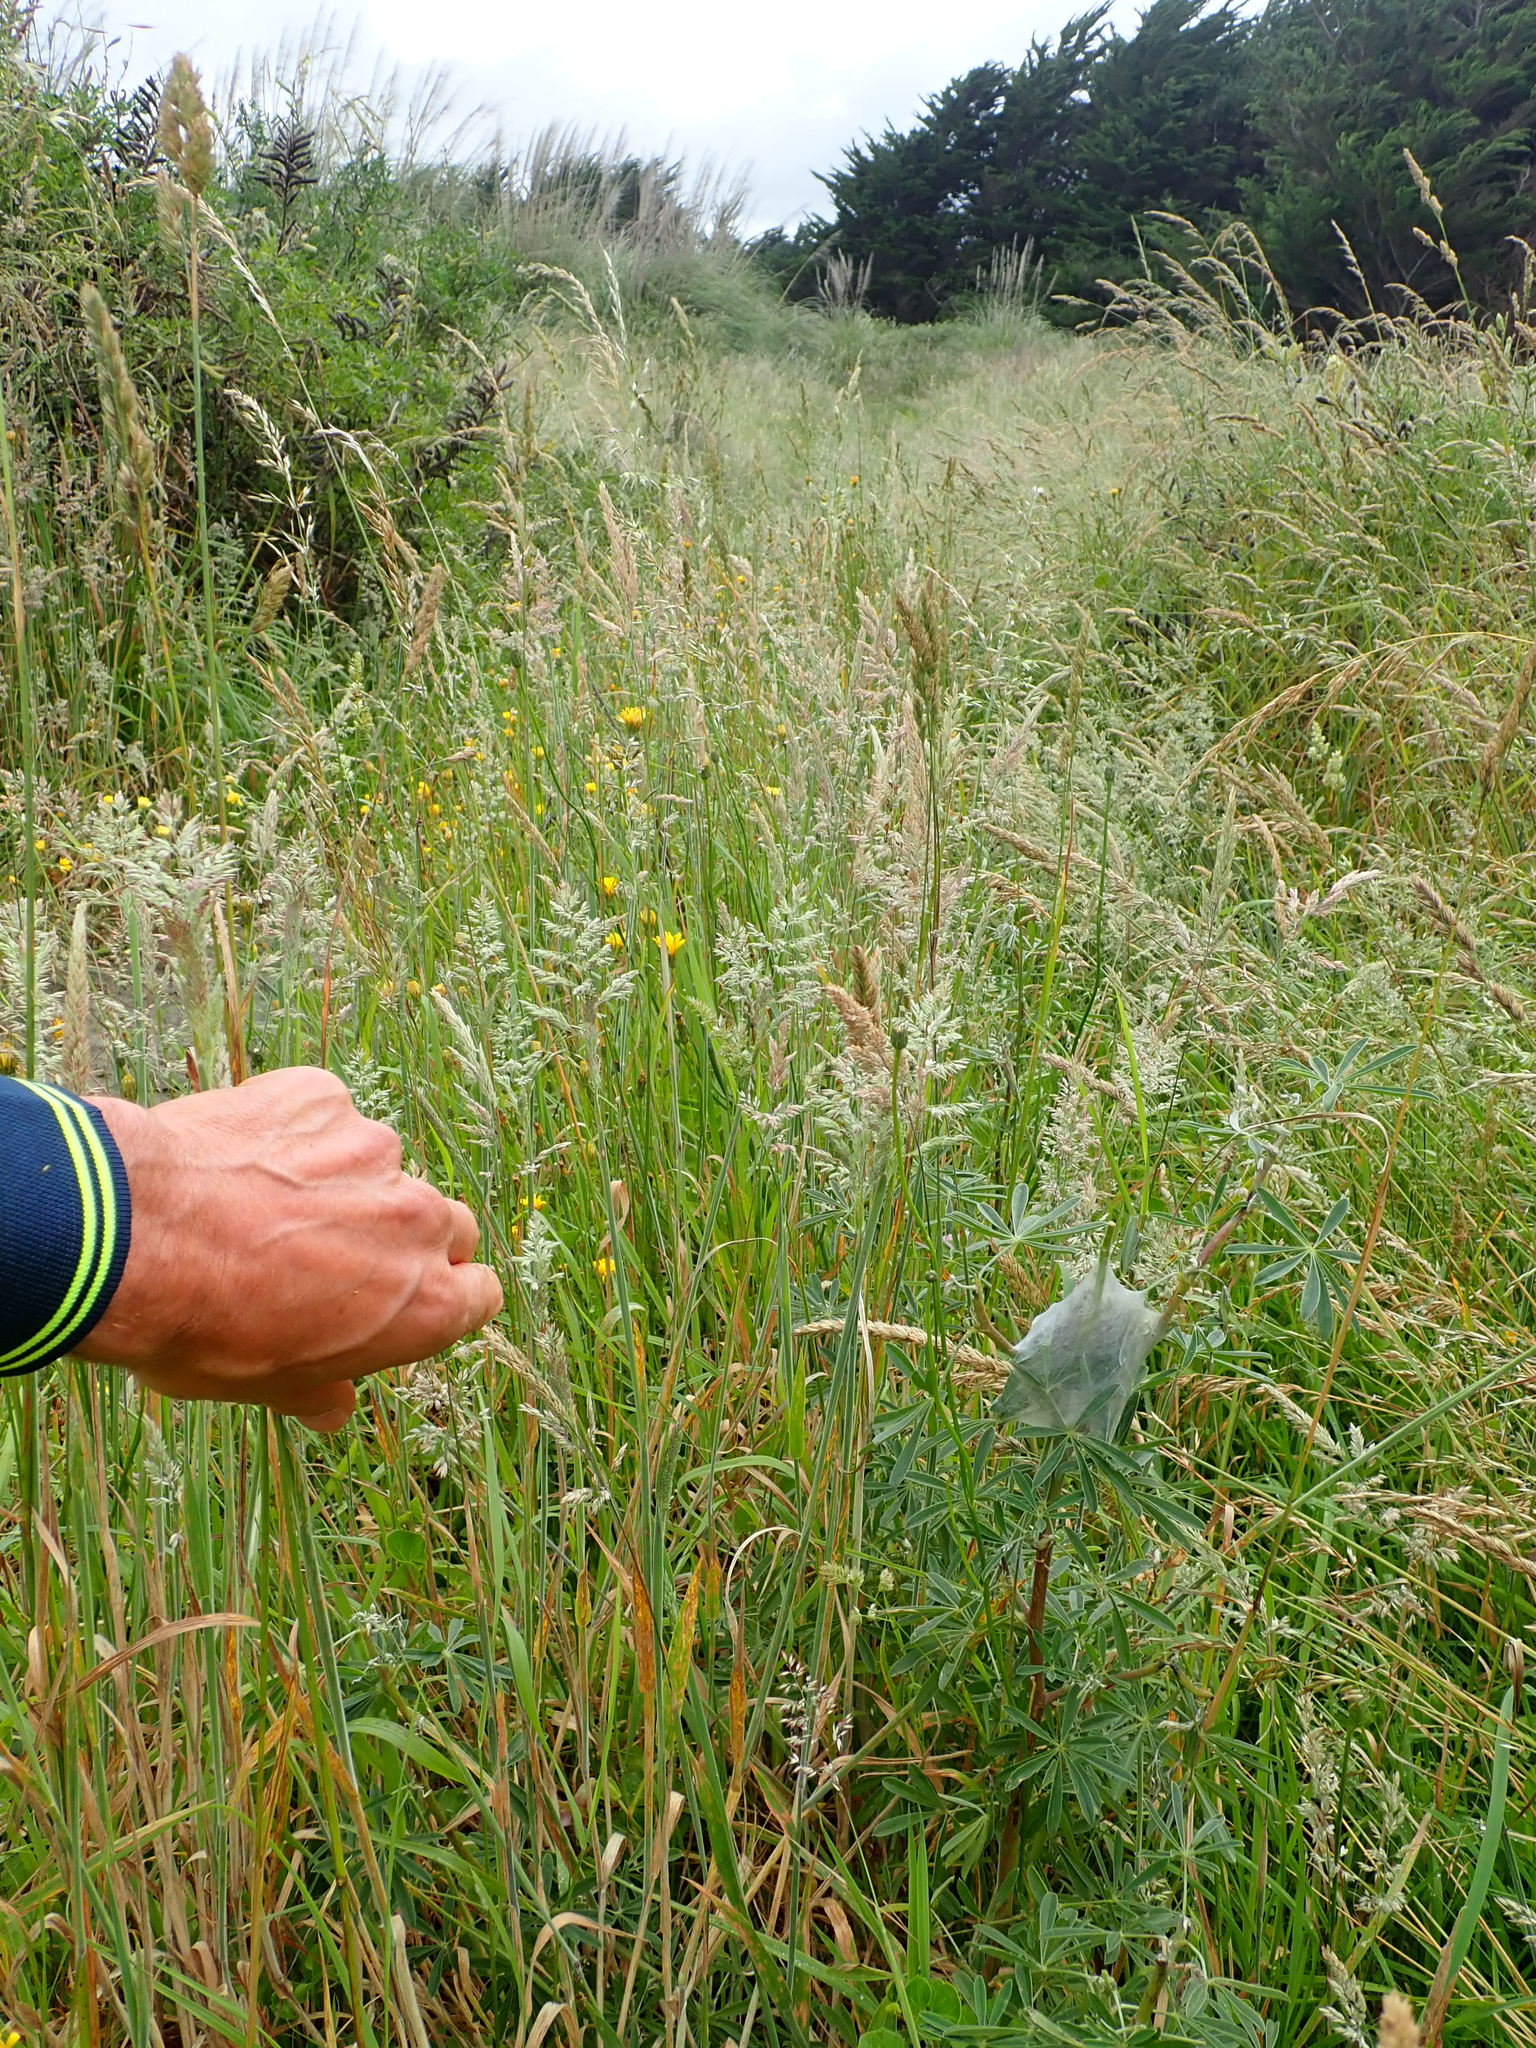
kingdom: Animalia
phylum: Arthropoda
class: Arachnida
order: Araneae
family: Pisauridae
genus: Dolomedes
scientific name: Dolomedes minor
